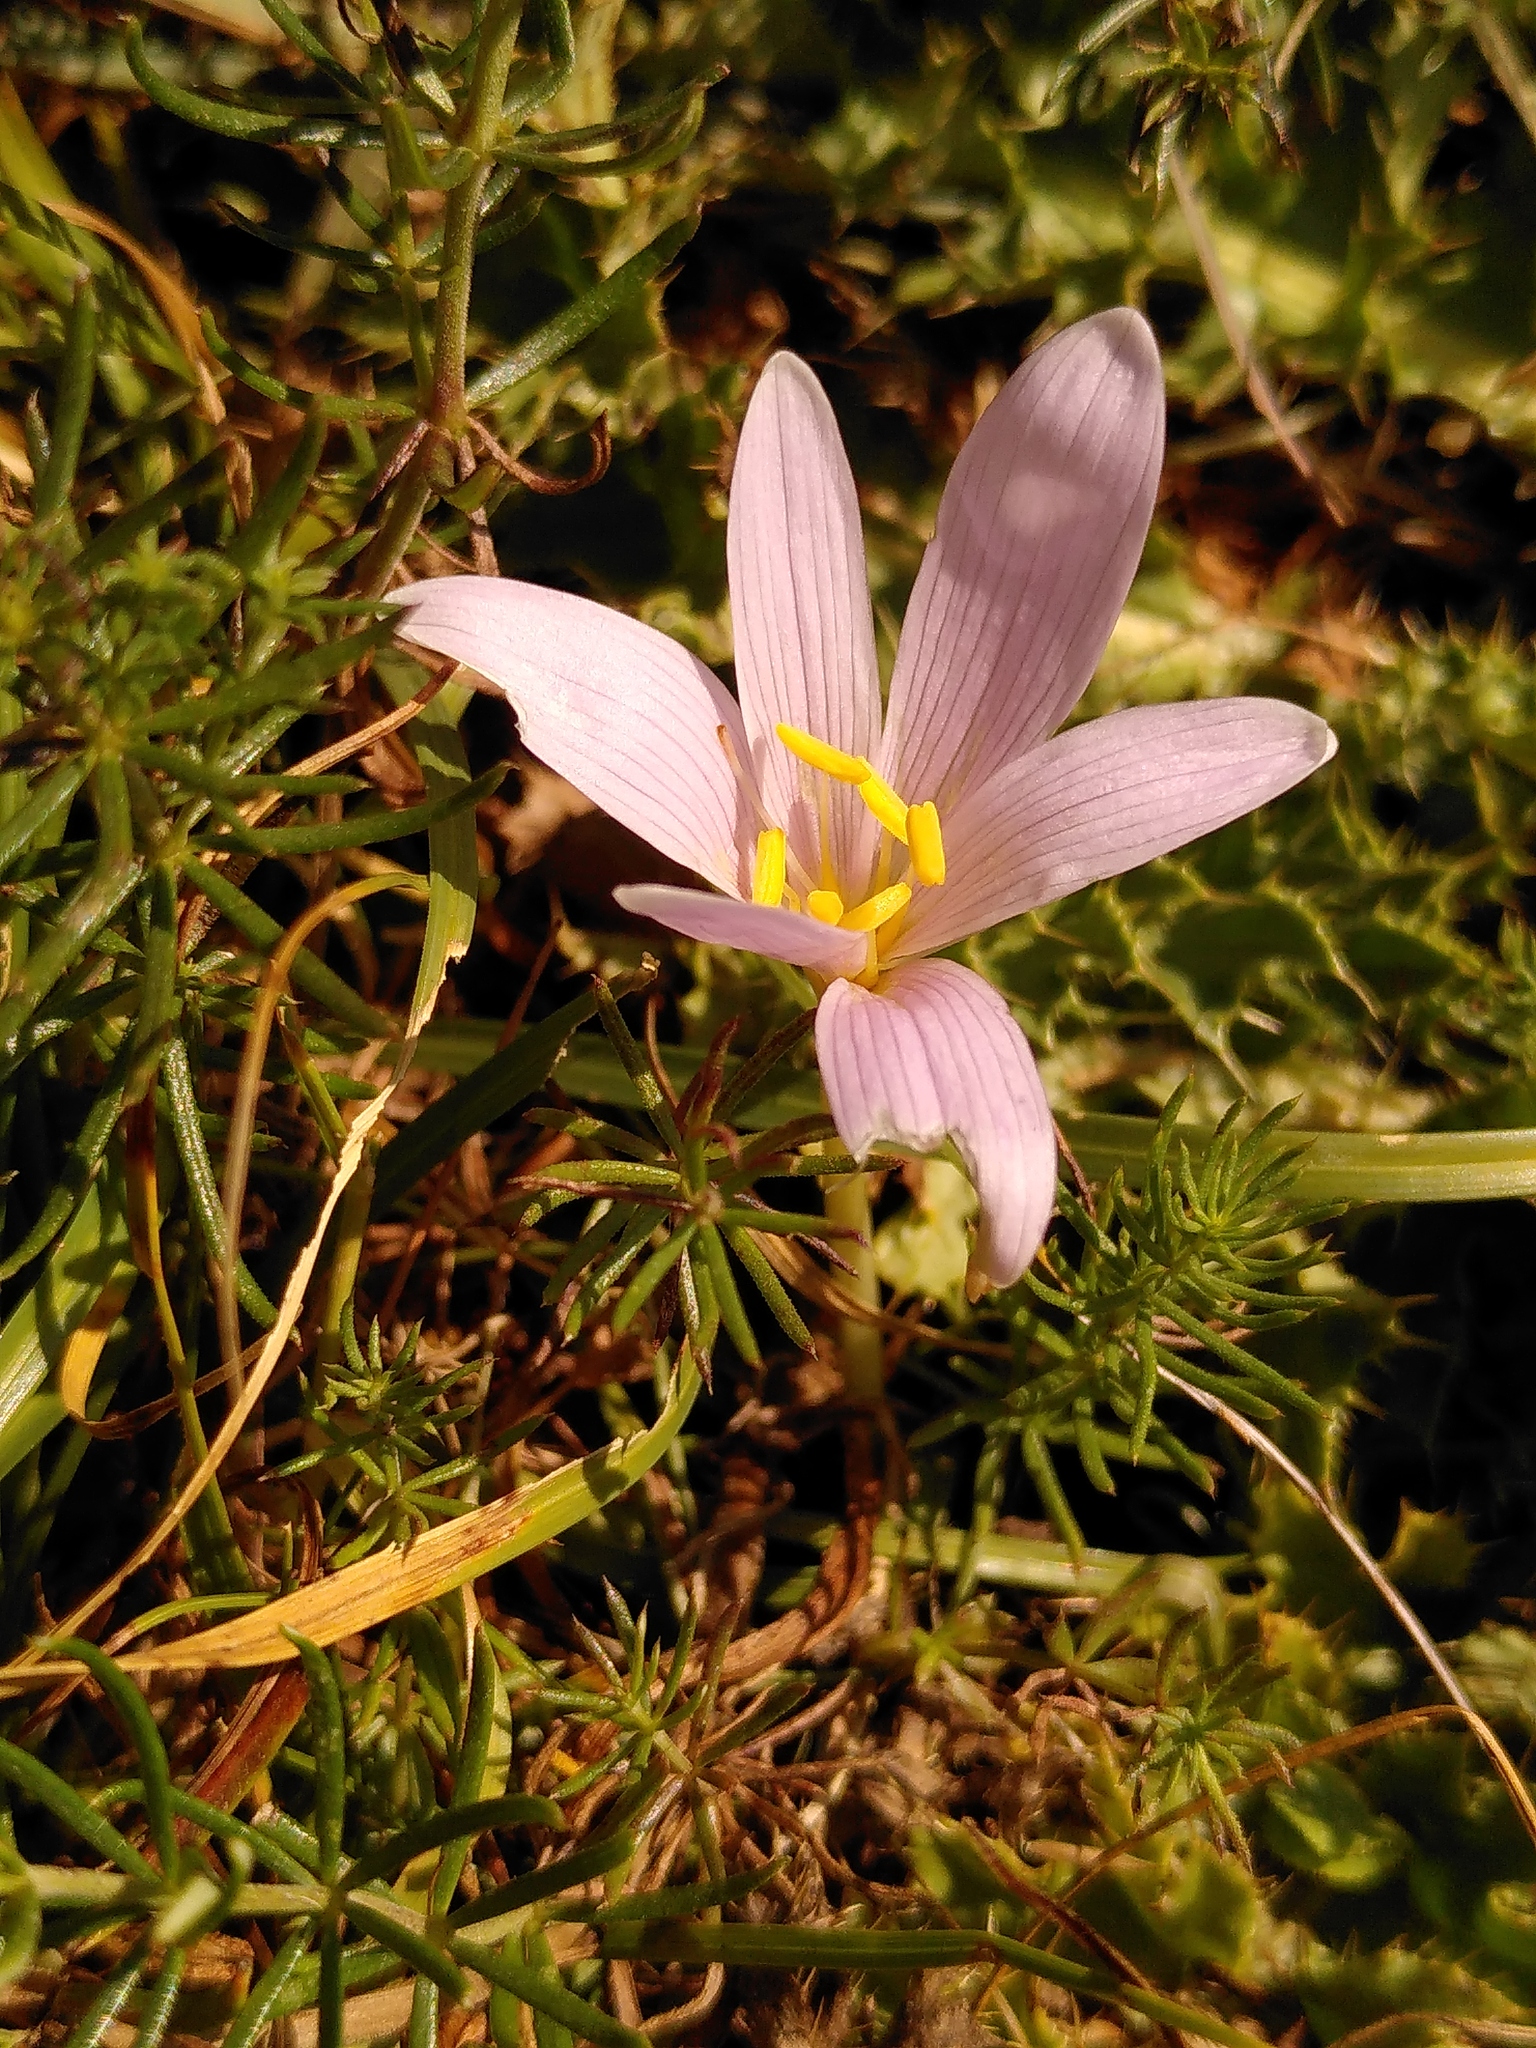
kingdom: Plantae
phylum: Tracheophyta
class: Liliopsida
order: Liliales
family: Colchicaceae
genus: Colchicum
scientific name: Colchicum alpinum
